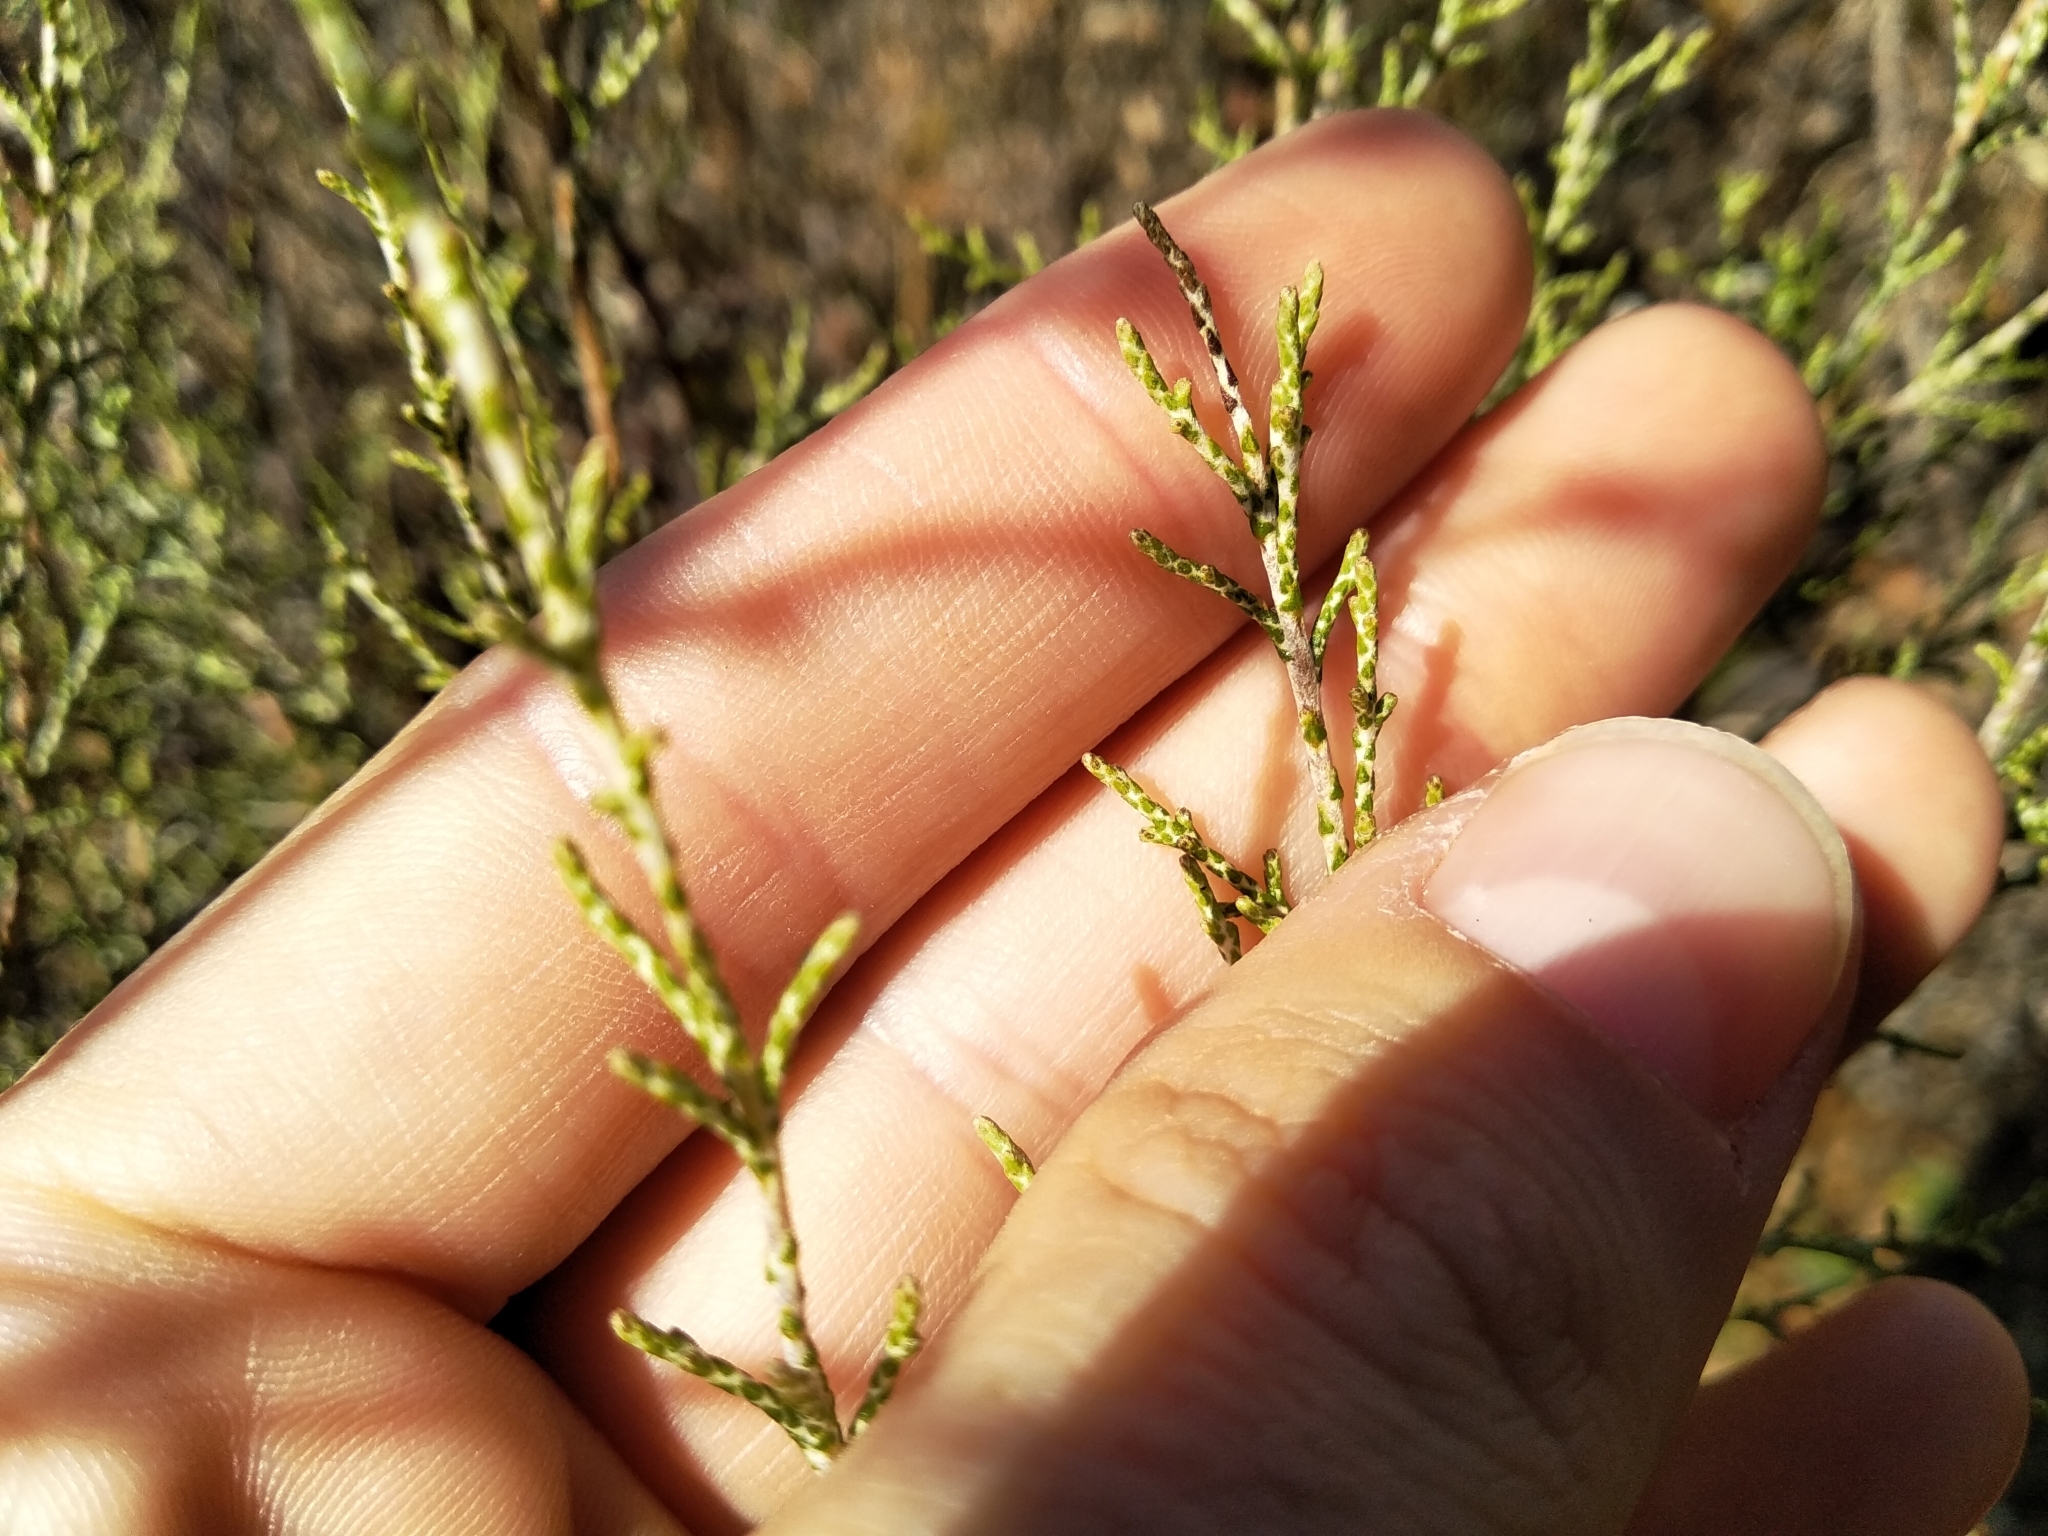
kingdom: Plantae
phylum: Tracheophyta
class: Magnoliopsida
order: Asterales
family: Asteraceae
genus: Dicerothamnus
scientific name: Dicerothamnus rhinocerotis
